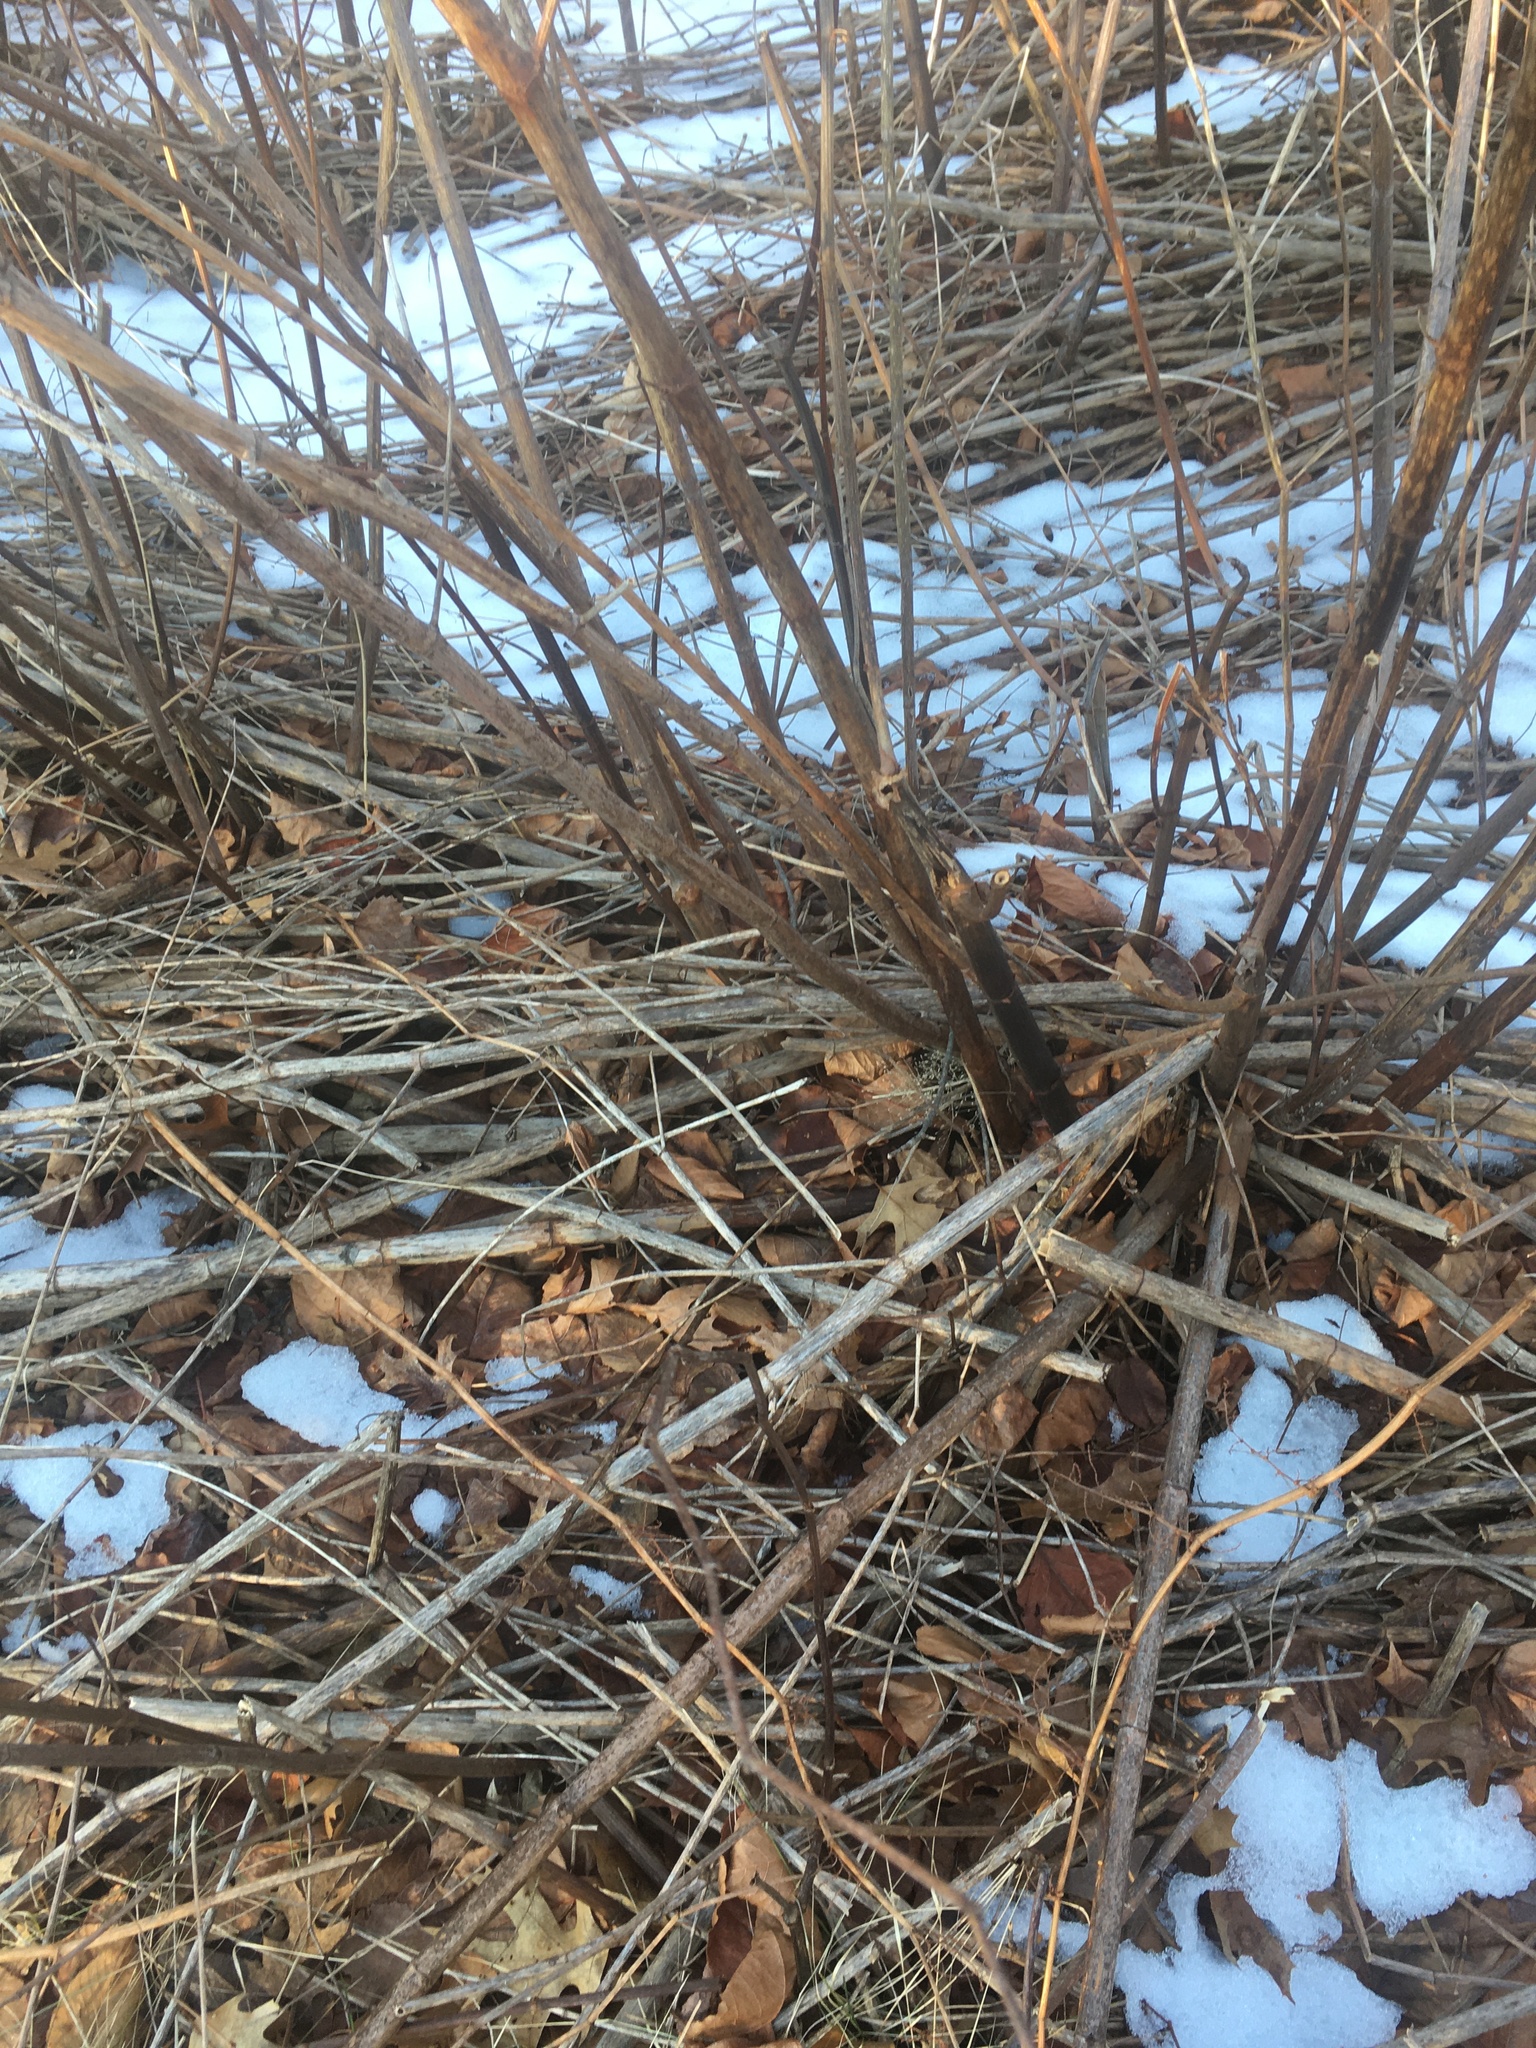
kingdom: Plantae
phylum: Tracheophyta
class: Magnoliopsida
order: Caryophyllales
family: Polygonaceae
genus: Reynoutria
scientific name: Reynoutria japonica
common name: Japanese knotweed
